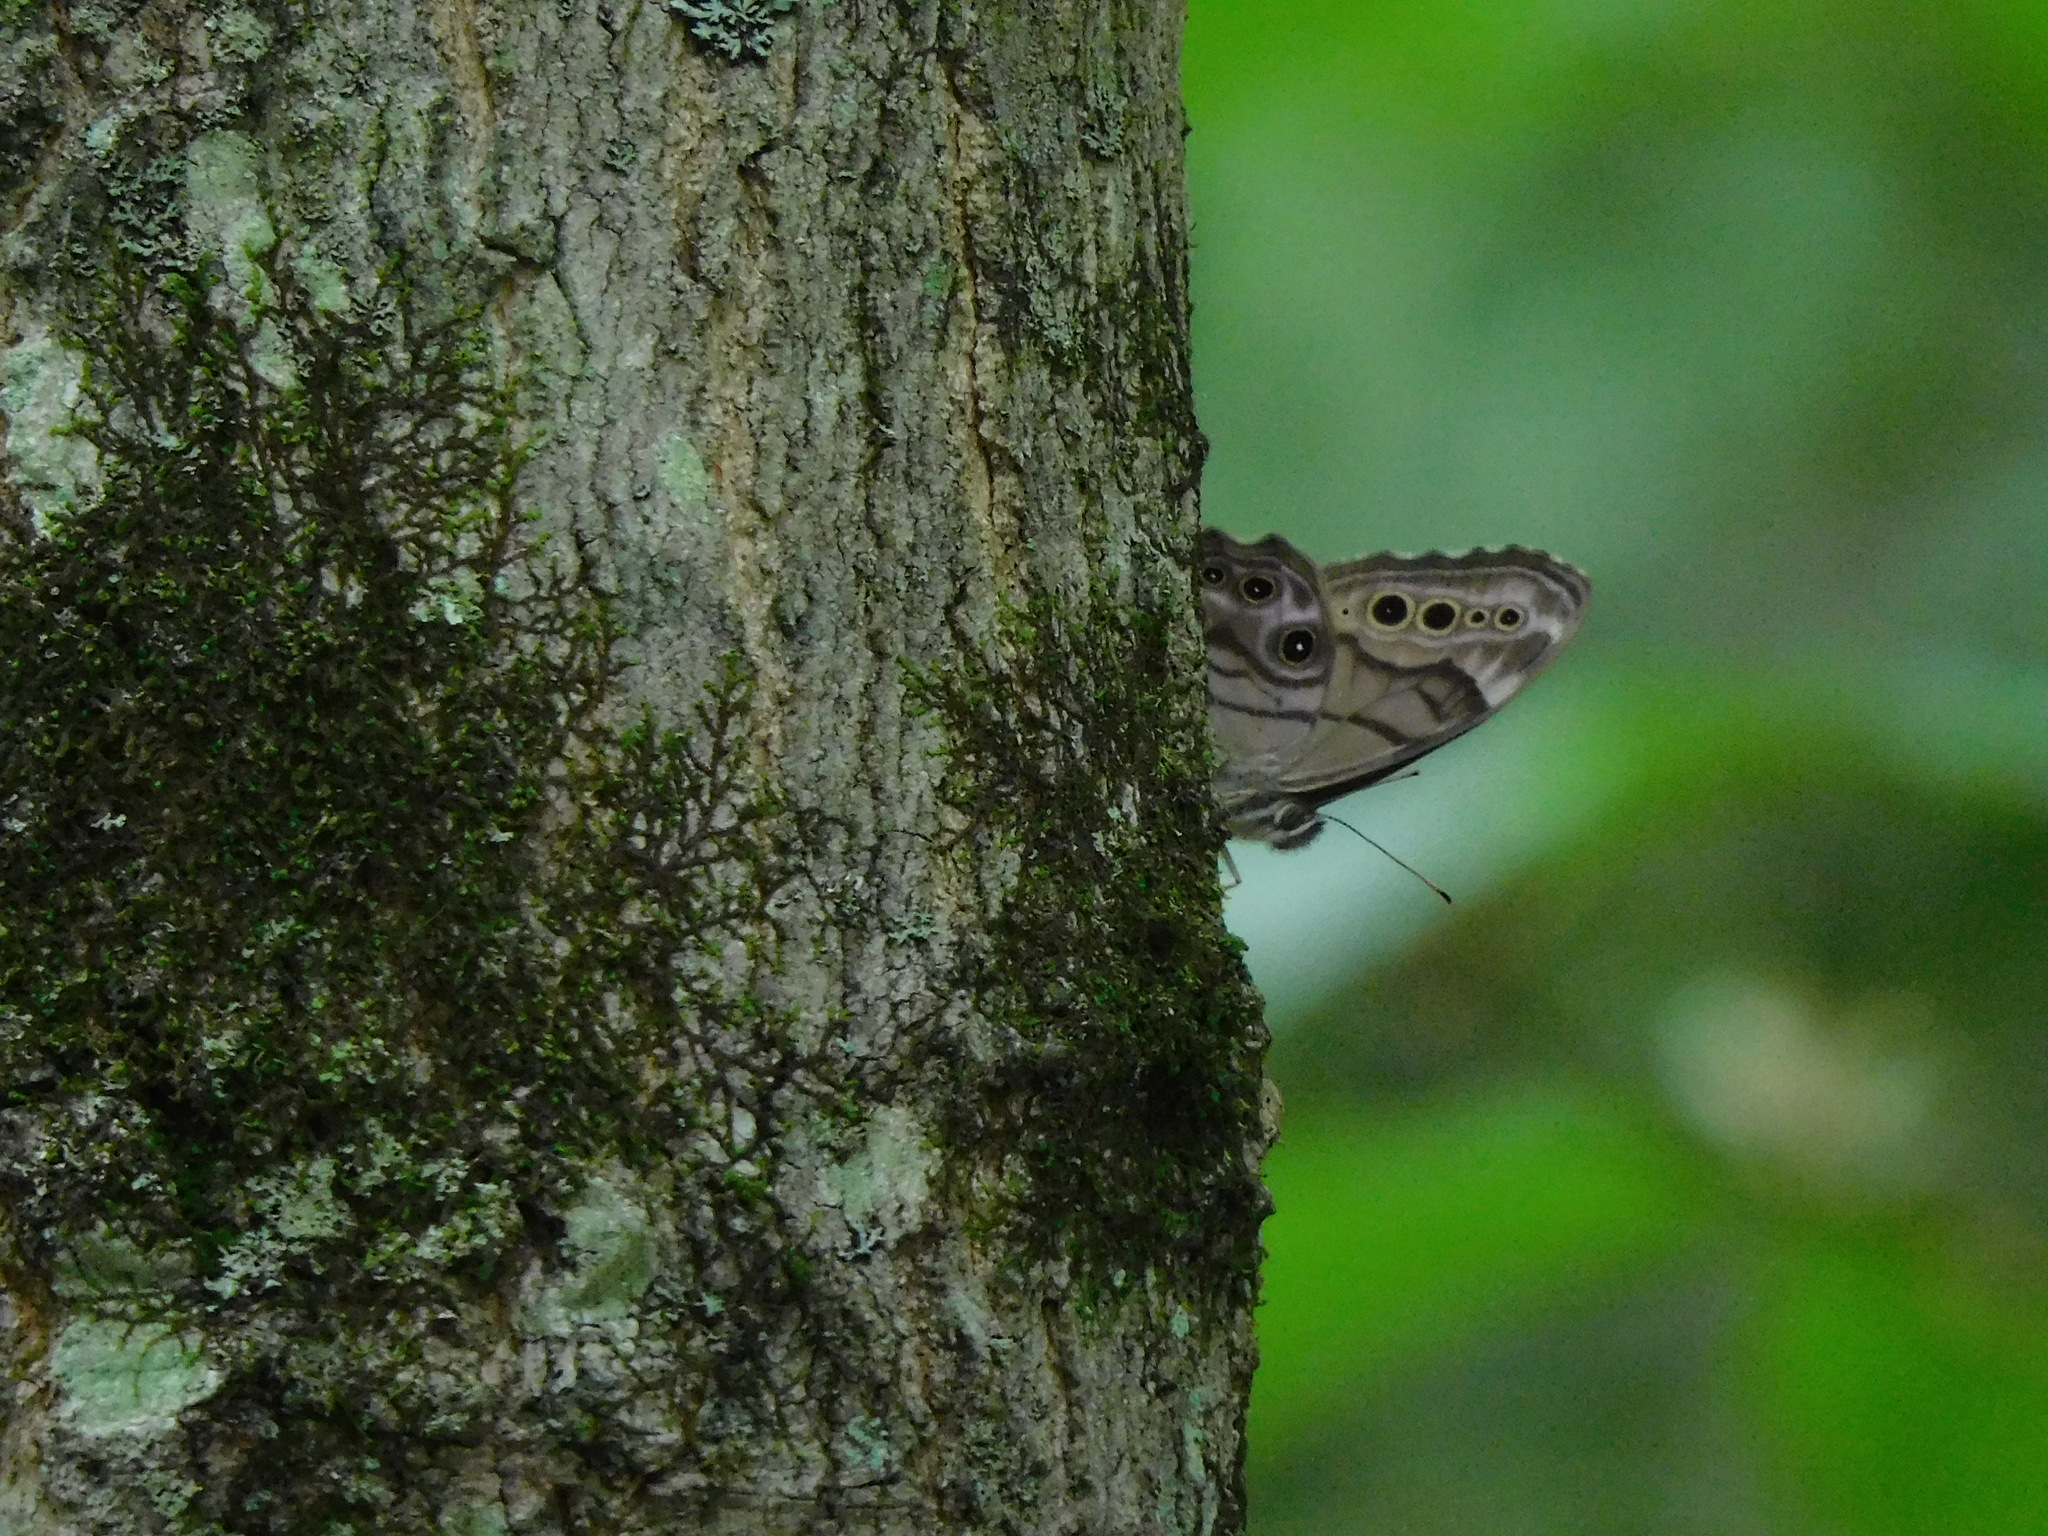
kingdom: Animalia
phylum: Arthropoda
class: Insecta
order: Lepidoptera
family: Nymphalidae
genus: Lethe
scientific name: Lethe anthedon
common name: Northern pearly-eye
